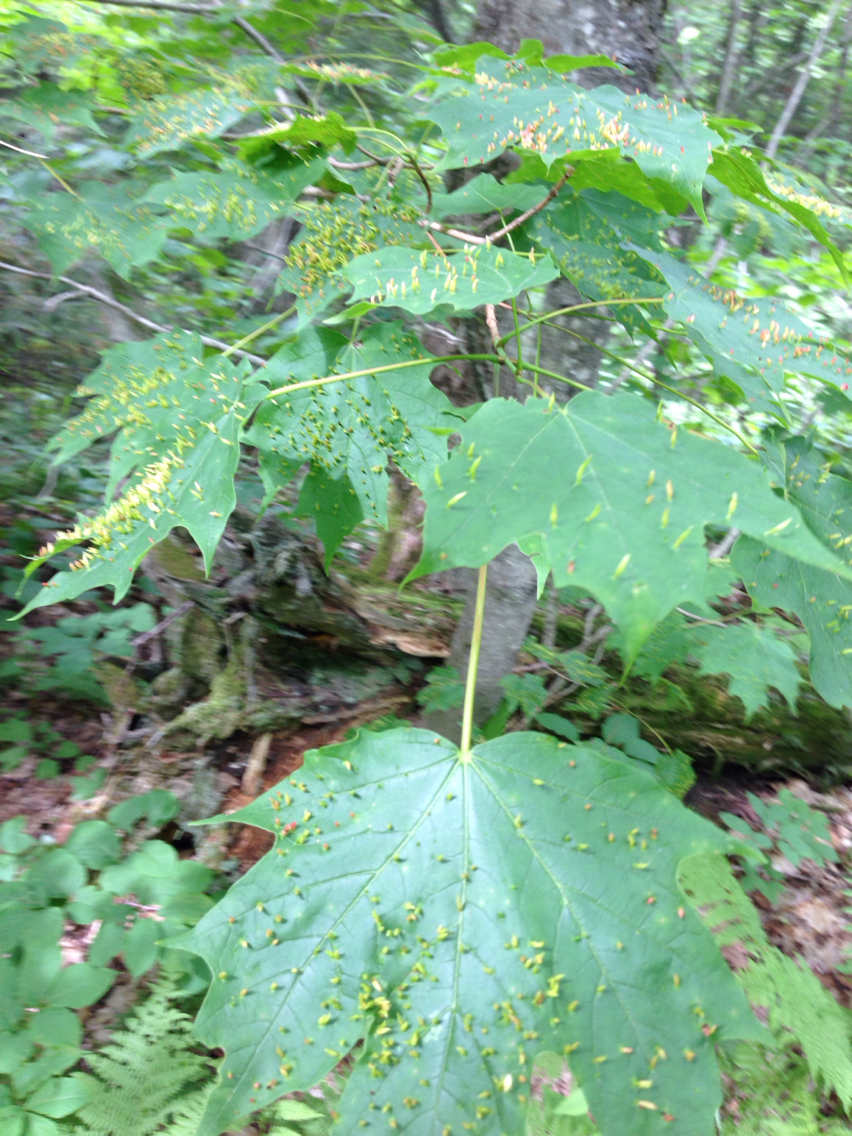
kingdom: Plantae
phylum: Tracheophyta
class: Magnoliopsida
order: Sapindales
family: Sapindaceae
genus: Acer
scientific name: Acer saccharum
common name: Sugar maple
